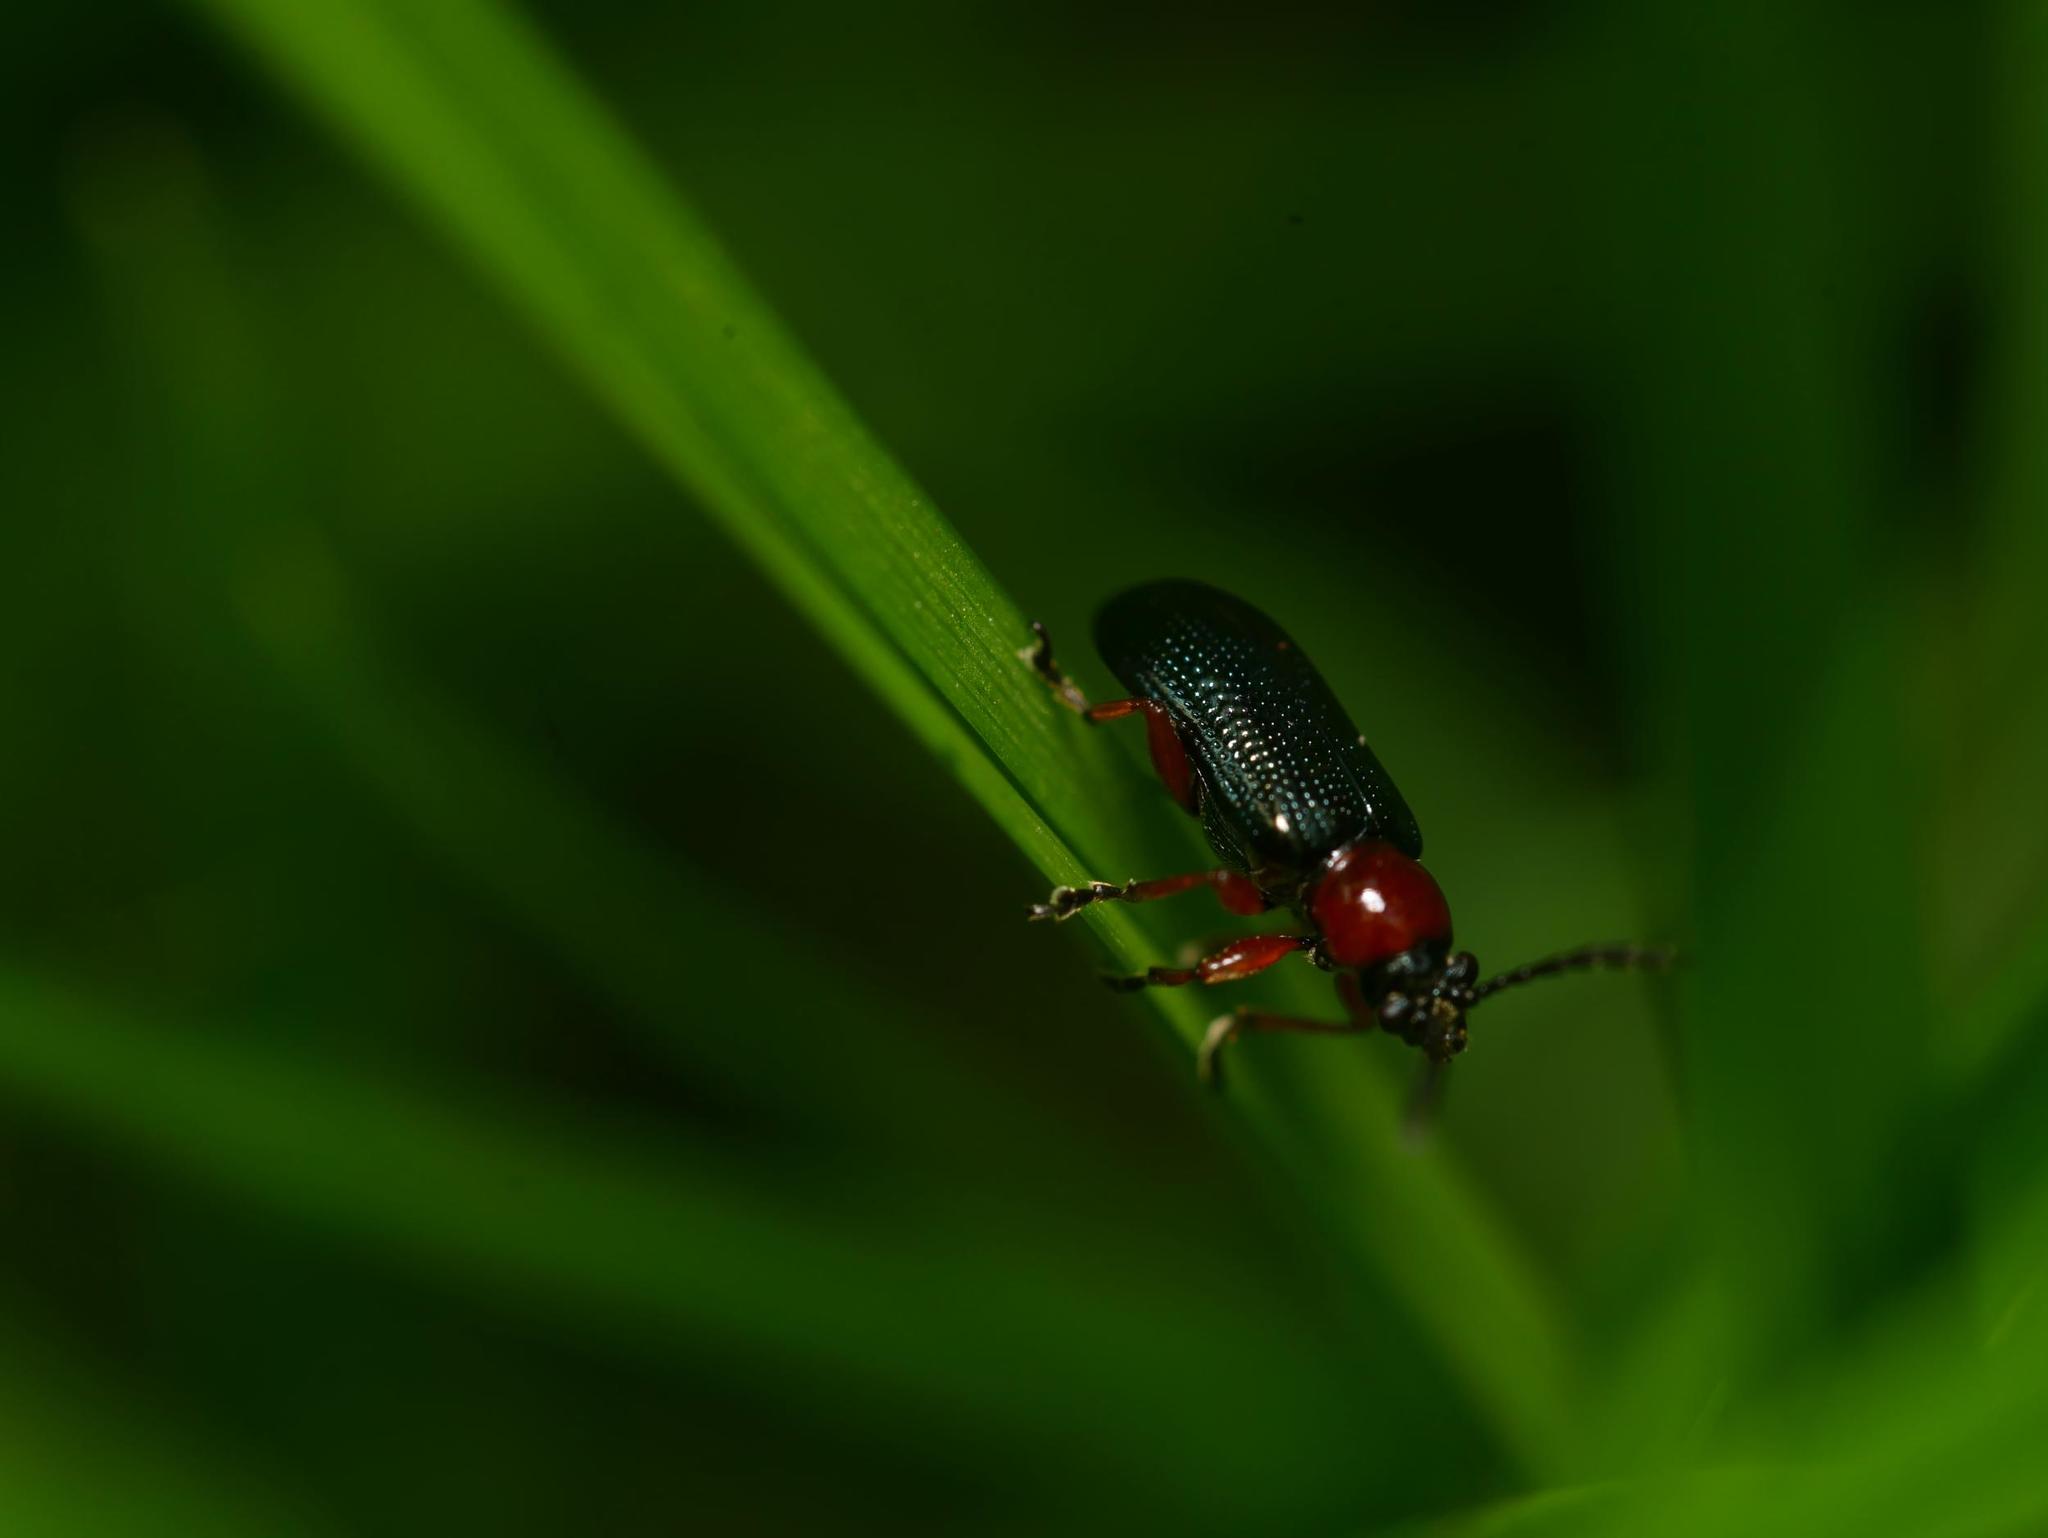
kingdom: Animalia
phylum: Arthropoda
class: Insecta
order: Coleoptera
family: Chrysomelidae
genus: Oulema
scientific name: Oulema
